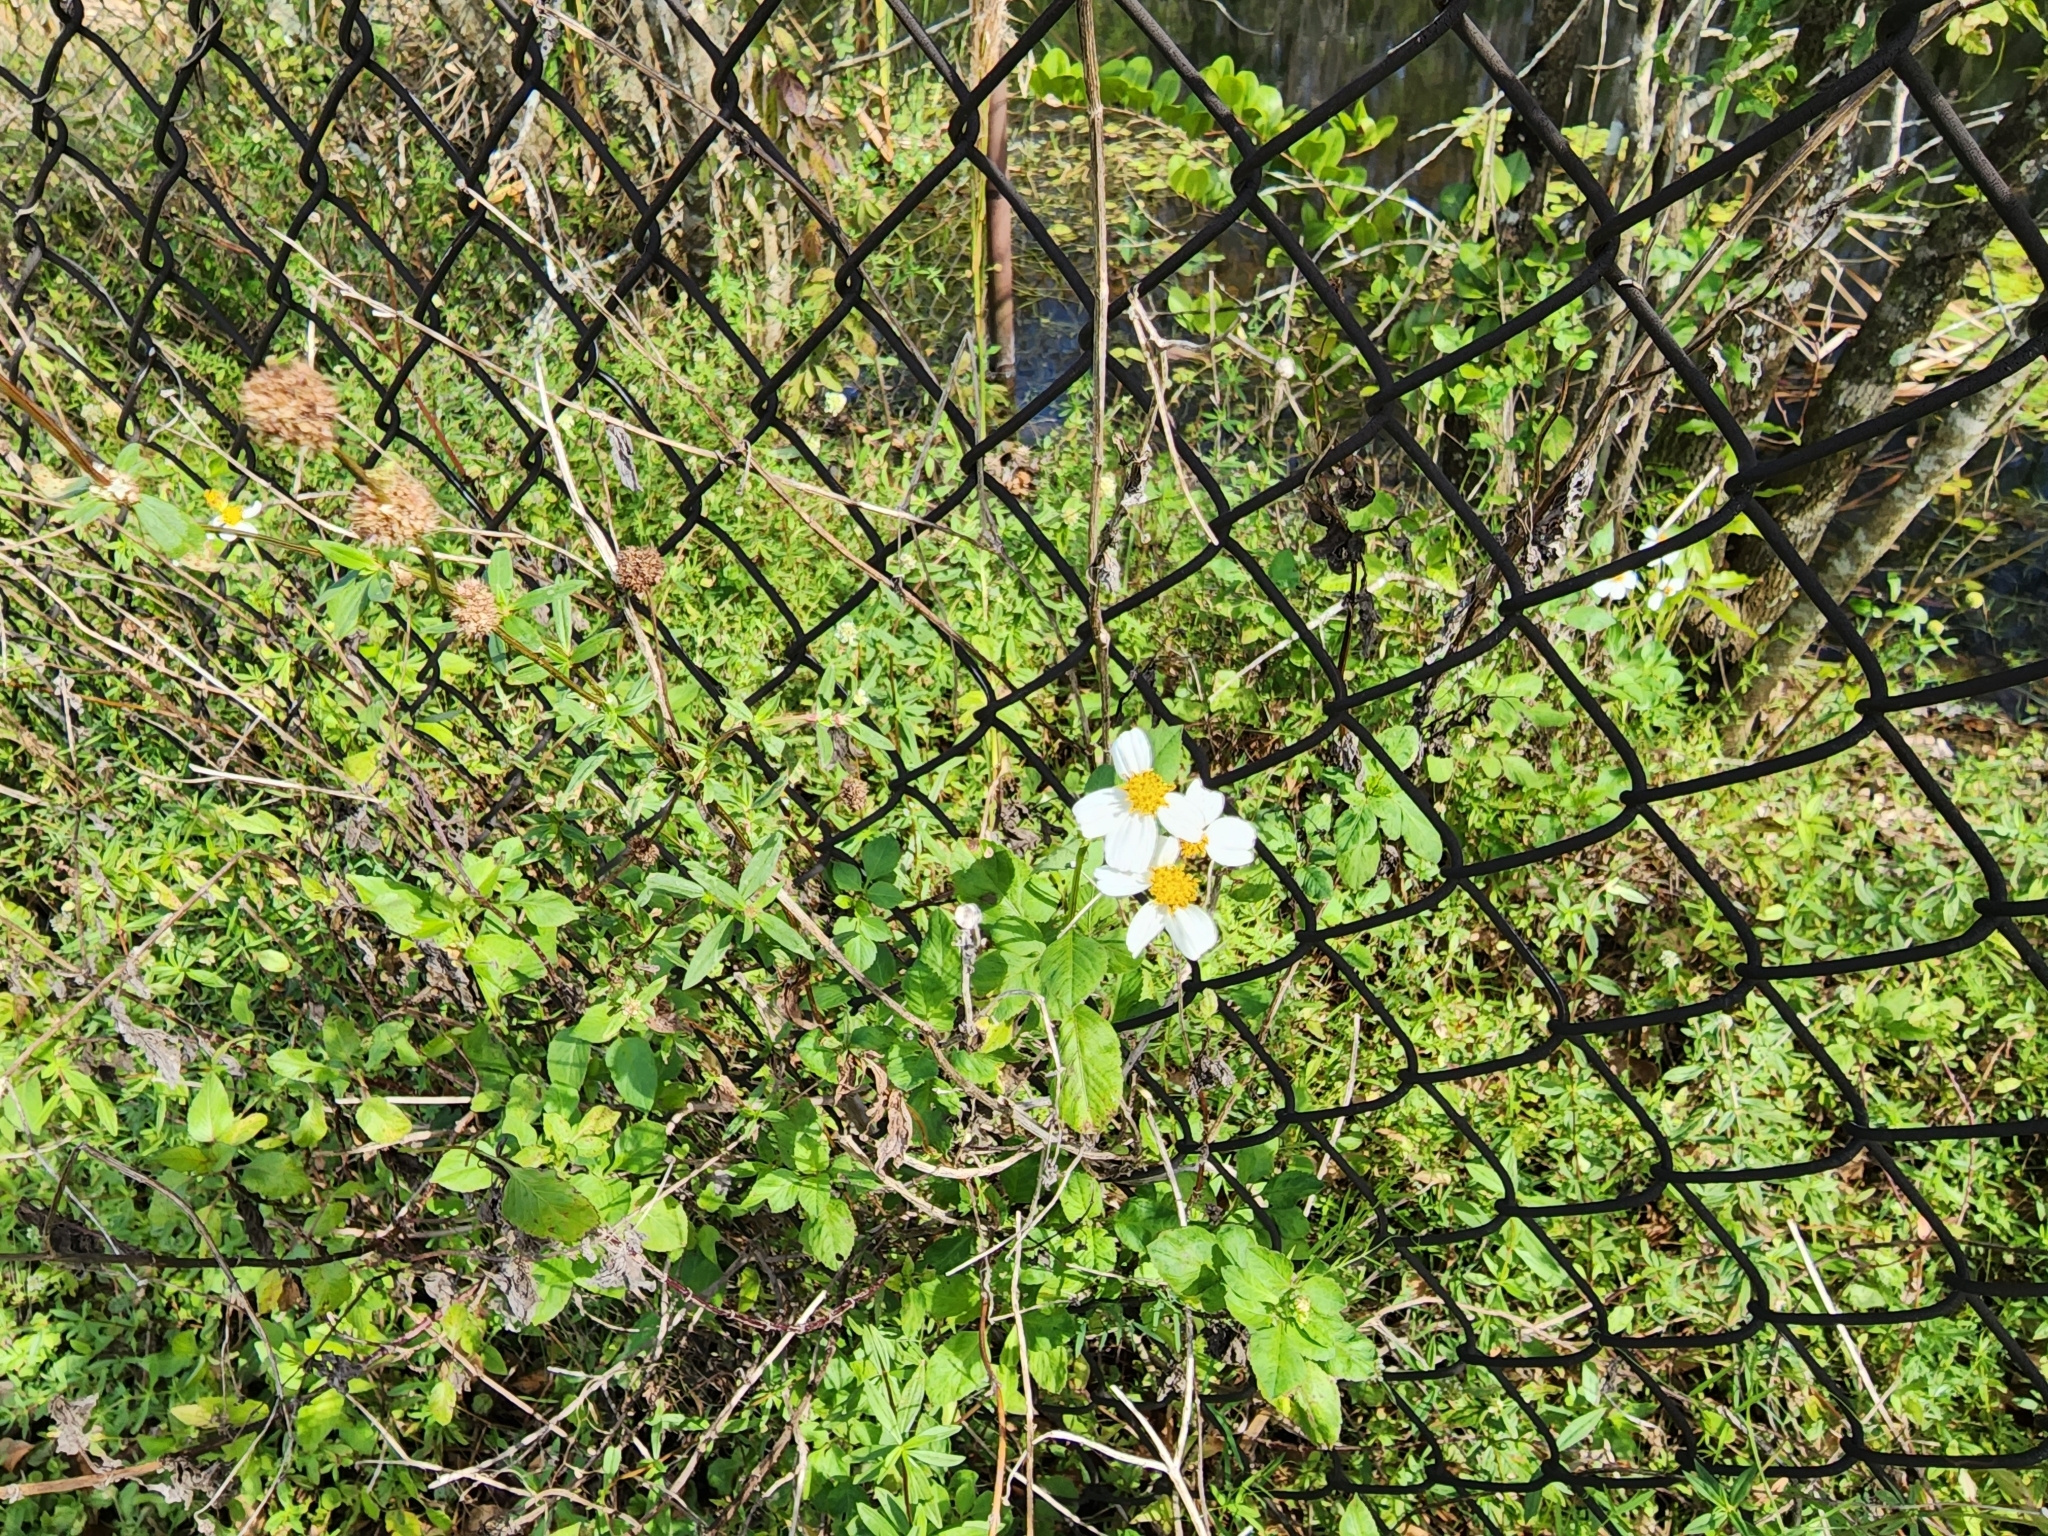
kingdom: Plantae
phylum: Tracheophyta
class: Magnoliopsida
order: Asterales
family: Asteraceae
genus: Bidens
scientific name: Bidens alba
